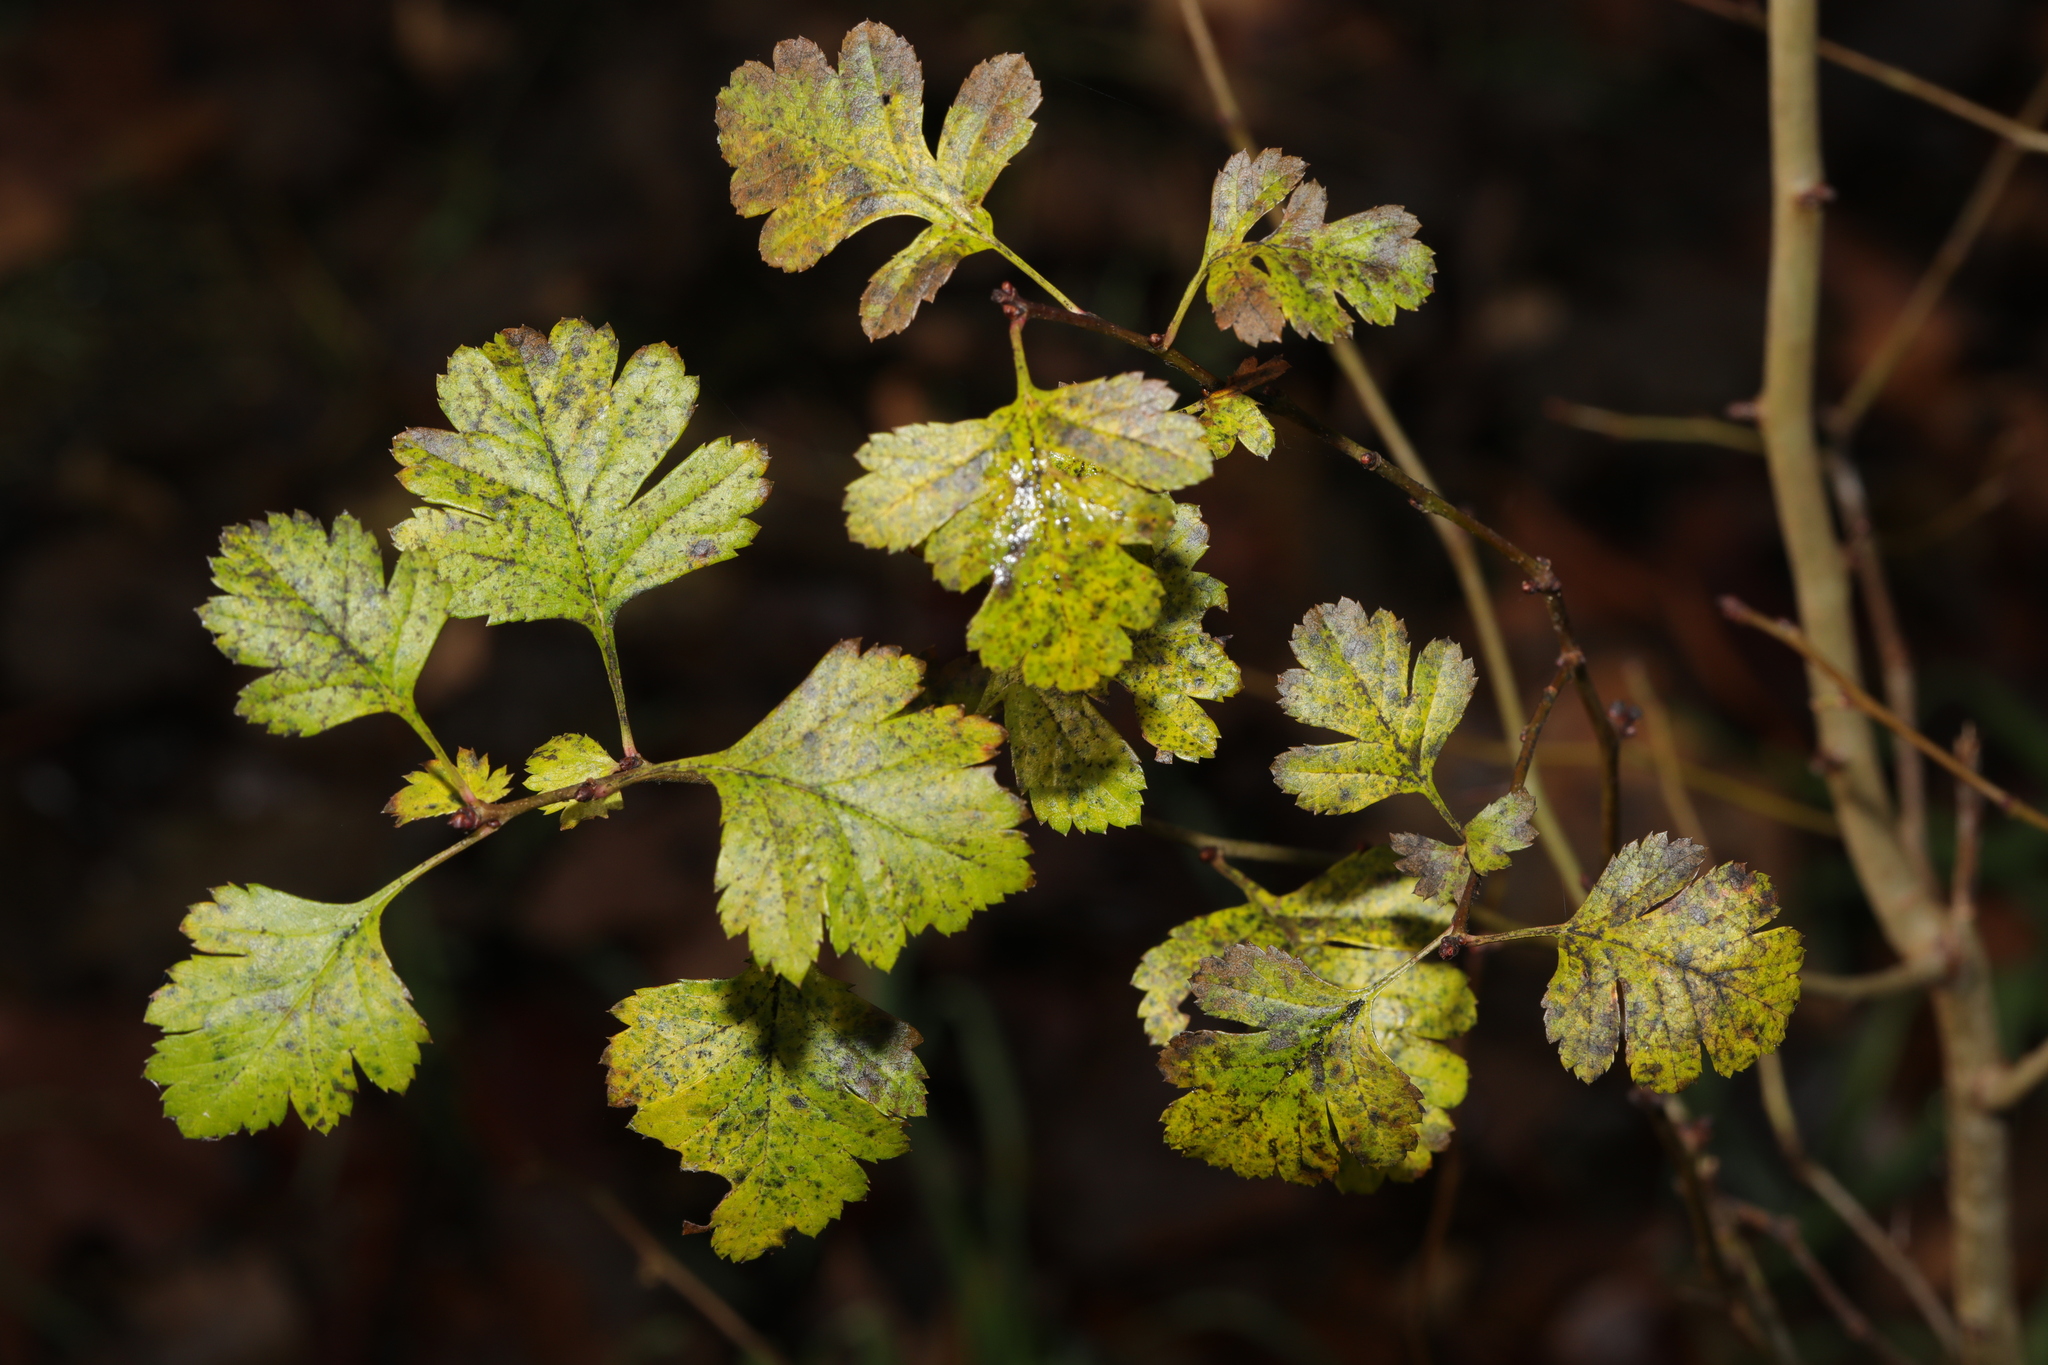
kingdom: Plantae
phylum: Tracheophyta
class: Magnoliopsida
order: Rosales
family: Rosaceae
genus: Crataegus
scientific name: Crataegus monogyna
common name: Hawthorn
